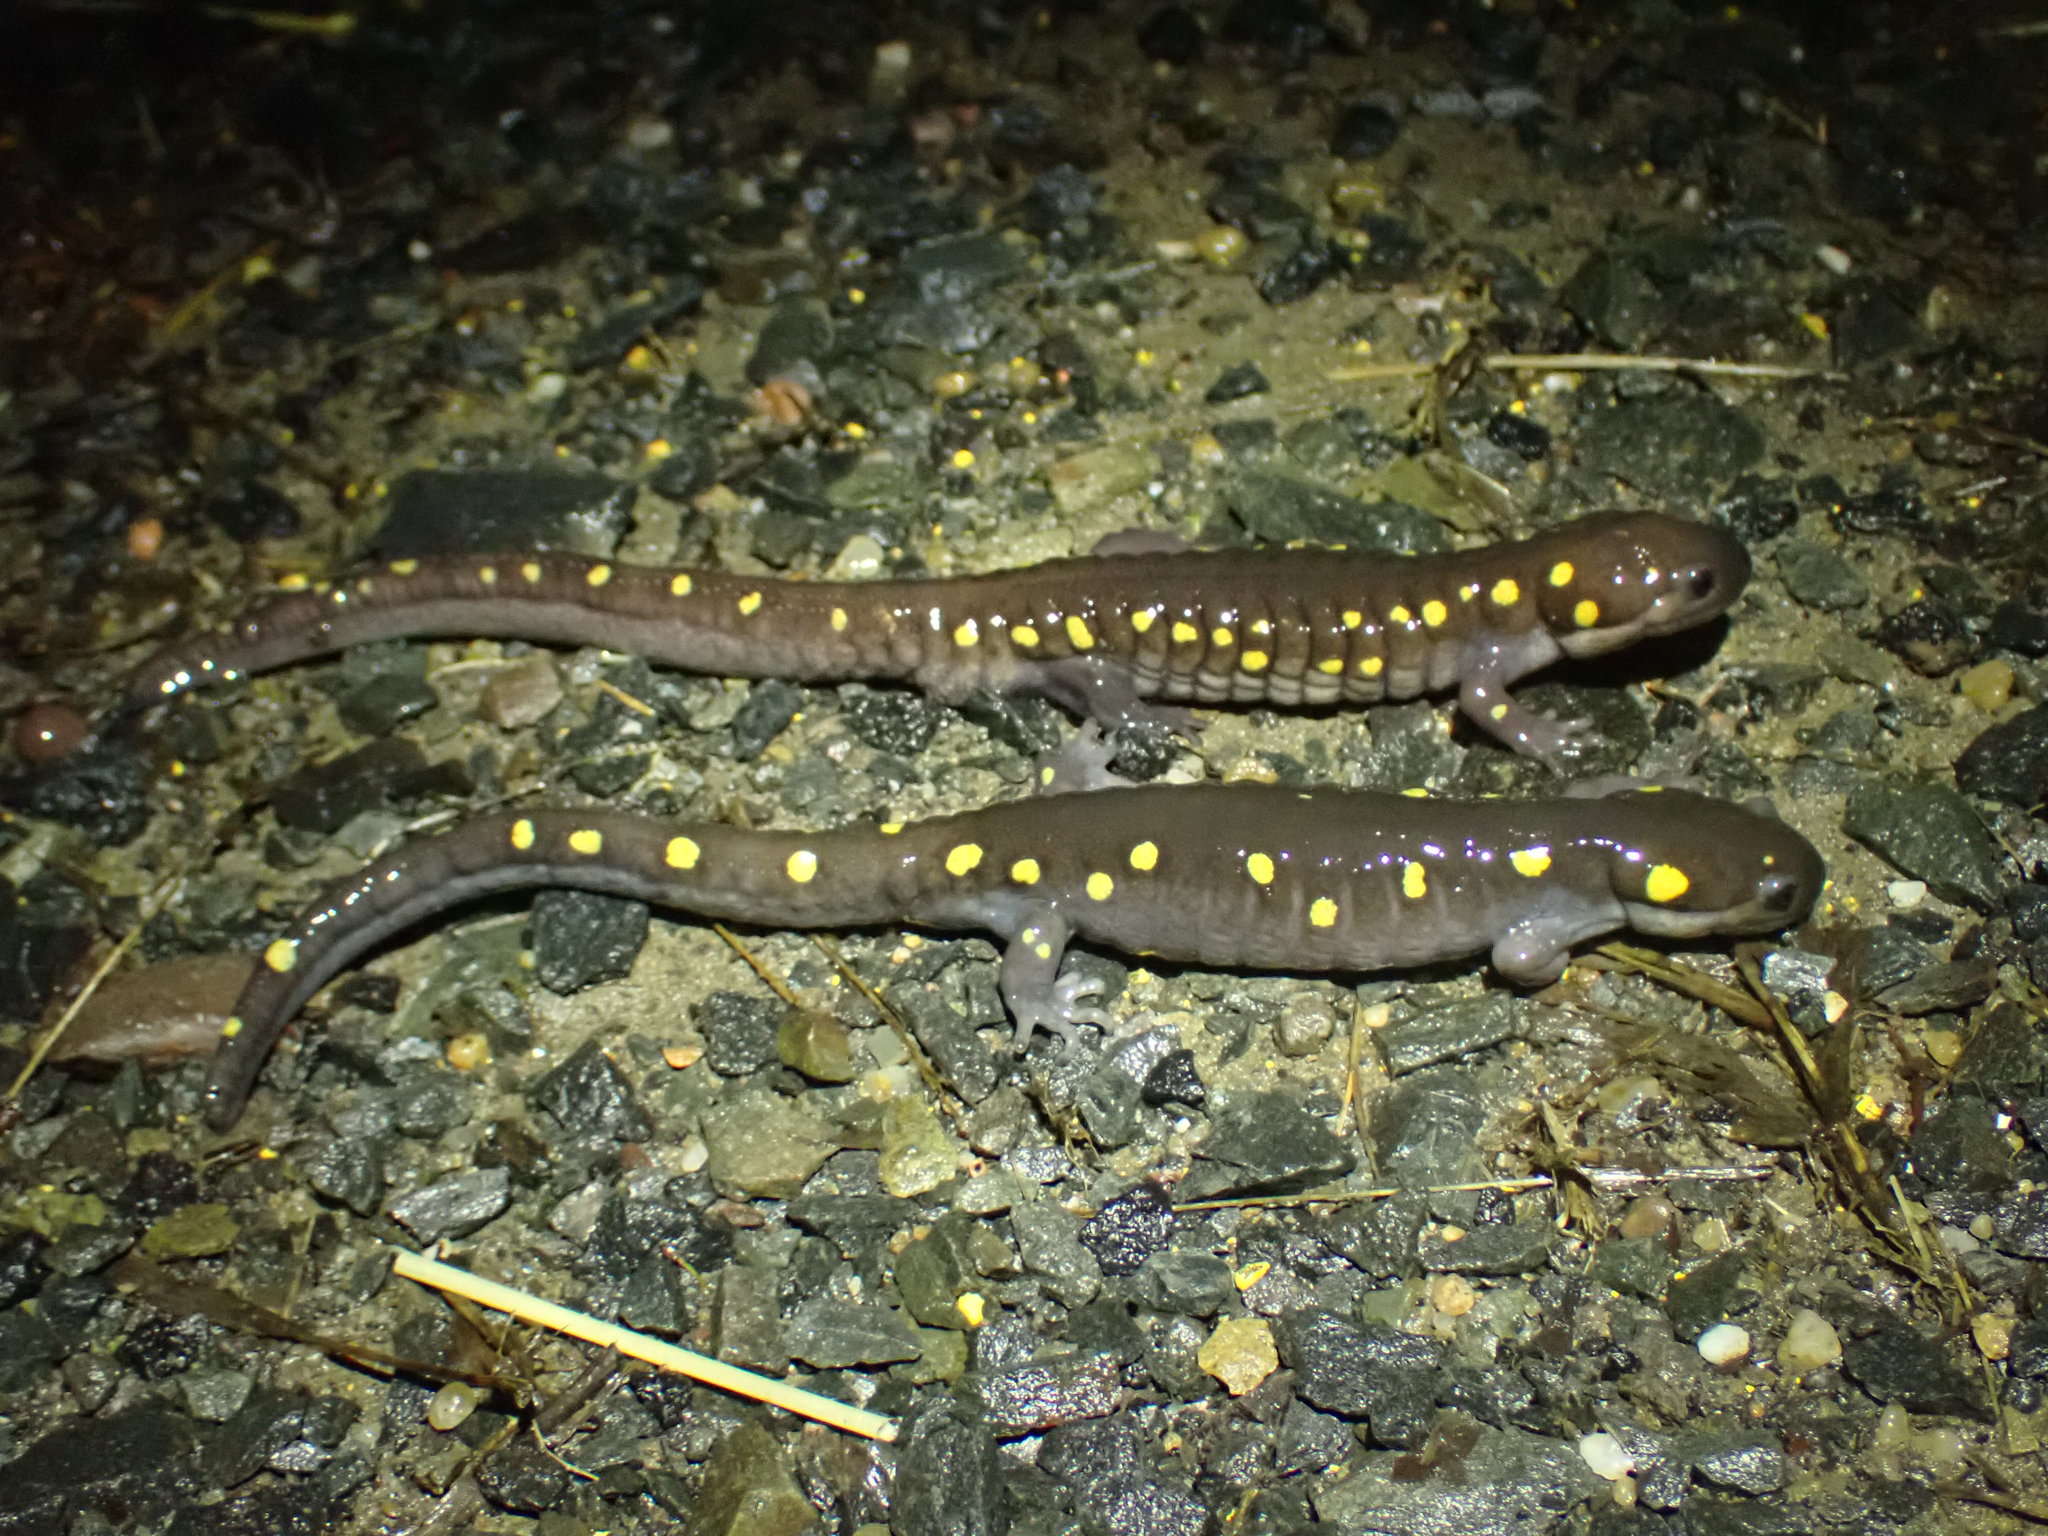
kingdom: Animalia
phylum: Chordata
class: Amphibia
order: Caudata
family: Ambystomatidae
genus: Ambystoma
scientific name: Ambystoma maculatum
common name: Spotted salamander
